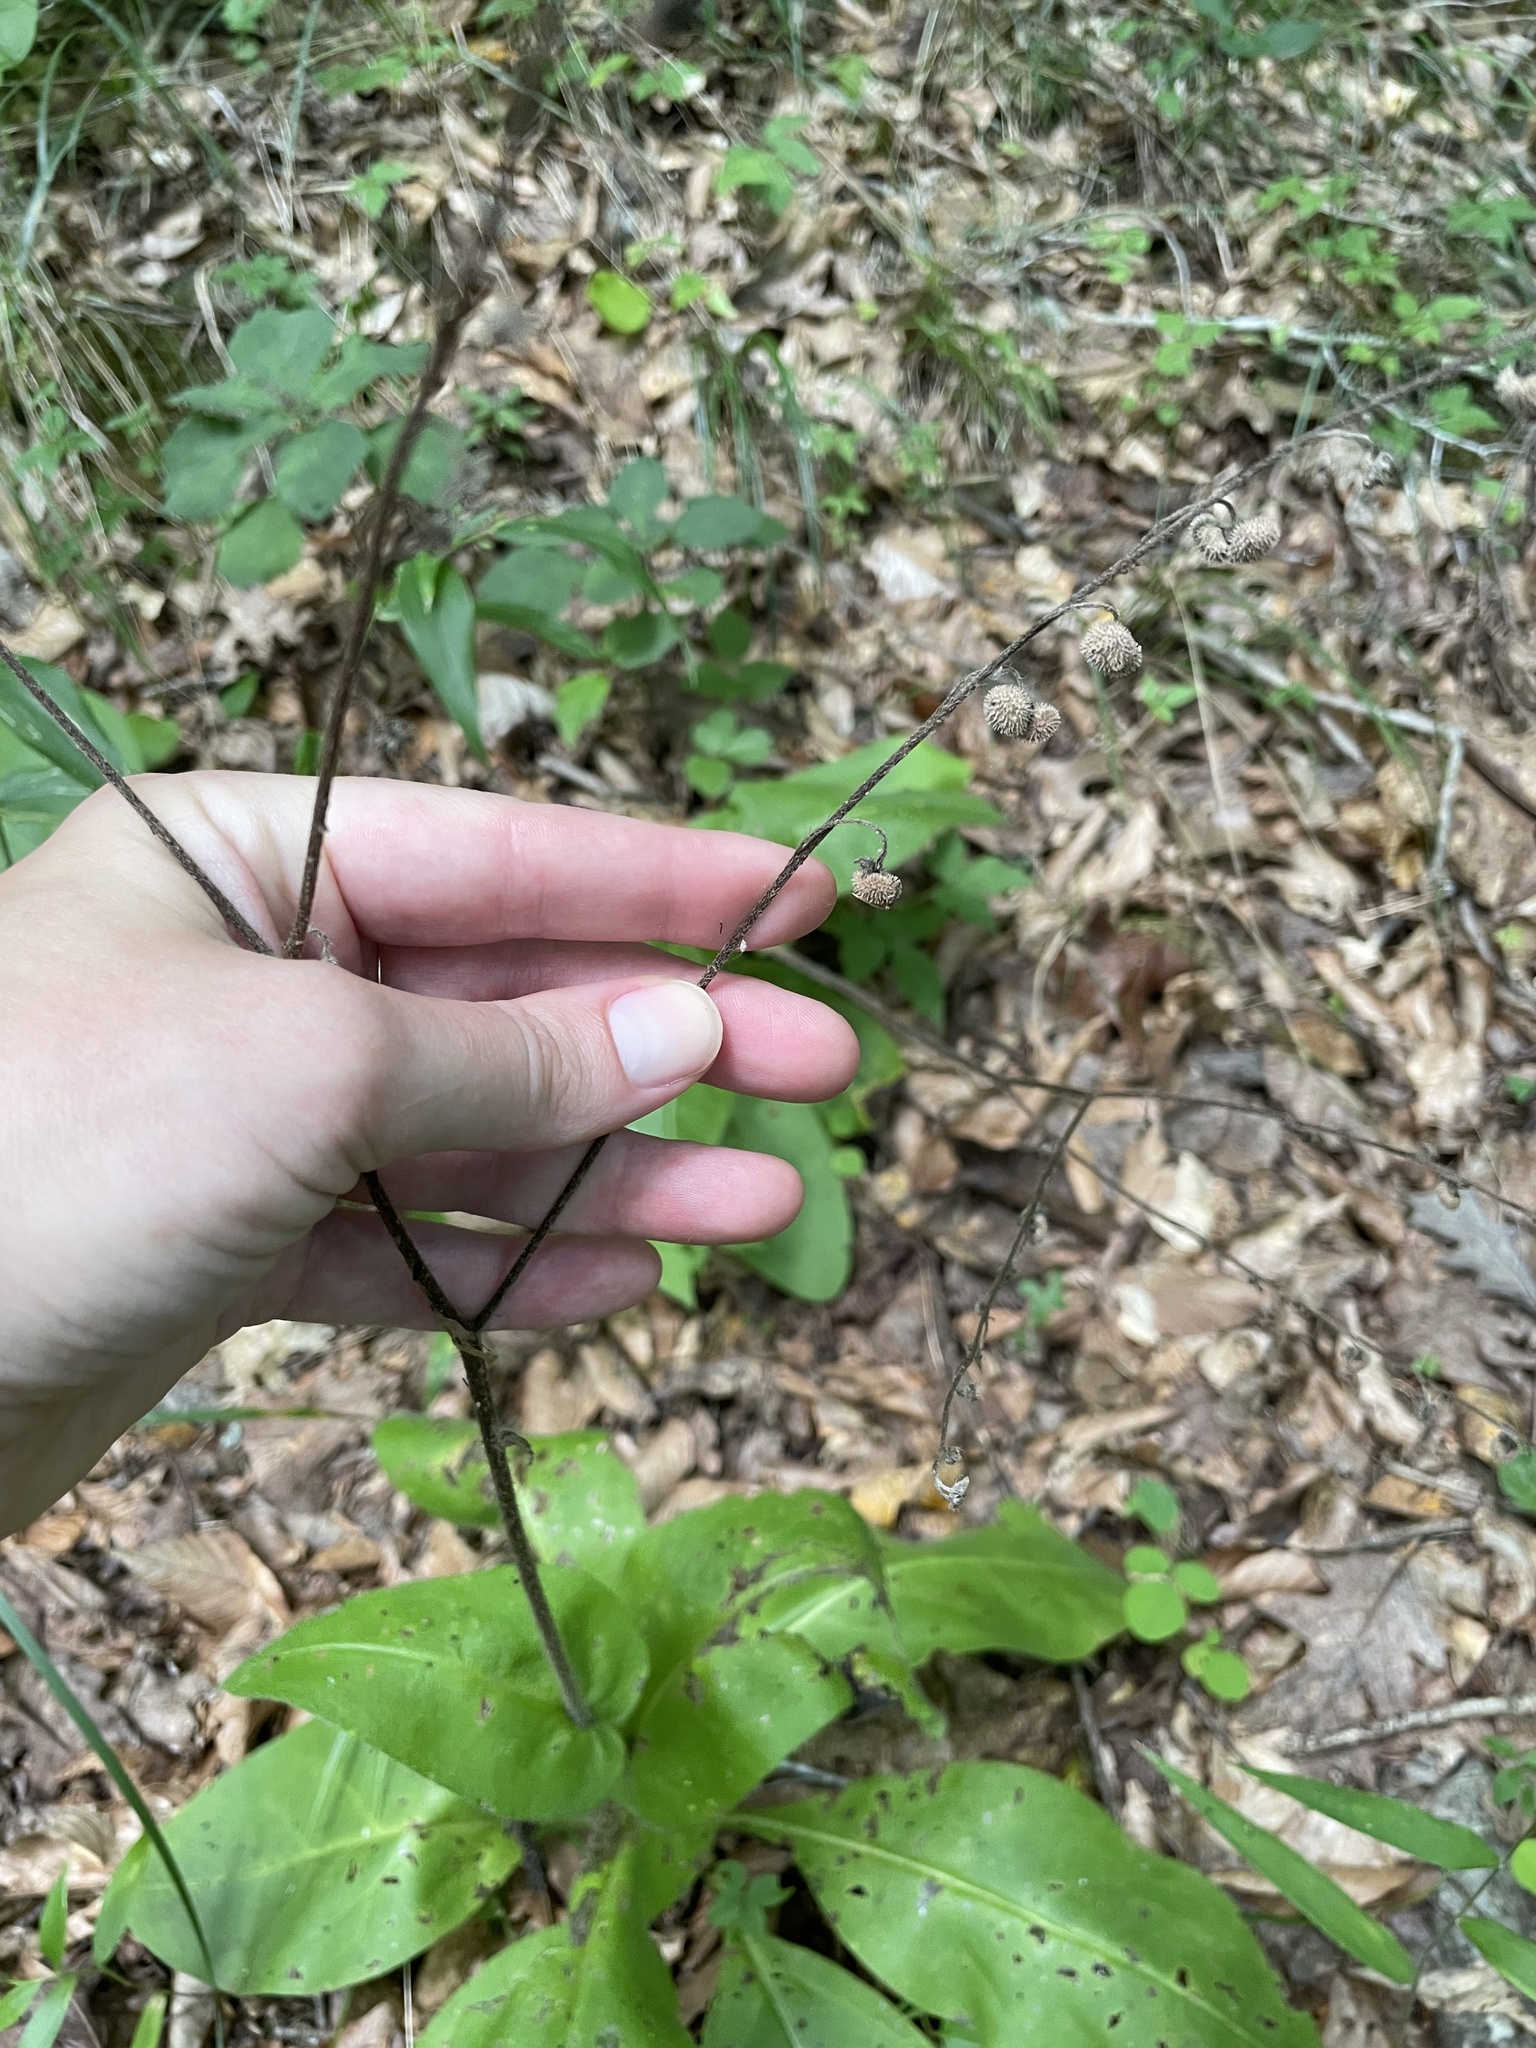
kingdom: Plantae
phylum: Tracheophyta
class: Magnoliopsida
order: Boraginales
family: Boraginaceae
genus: Andersonglossum
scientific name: Andersonglossum virginianum
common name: Wild comfrey
